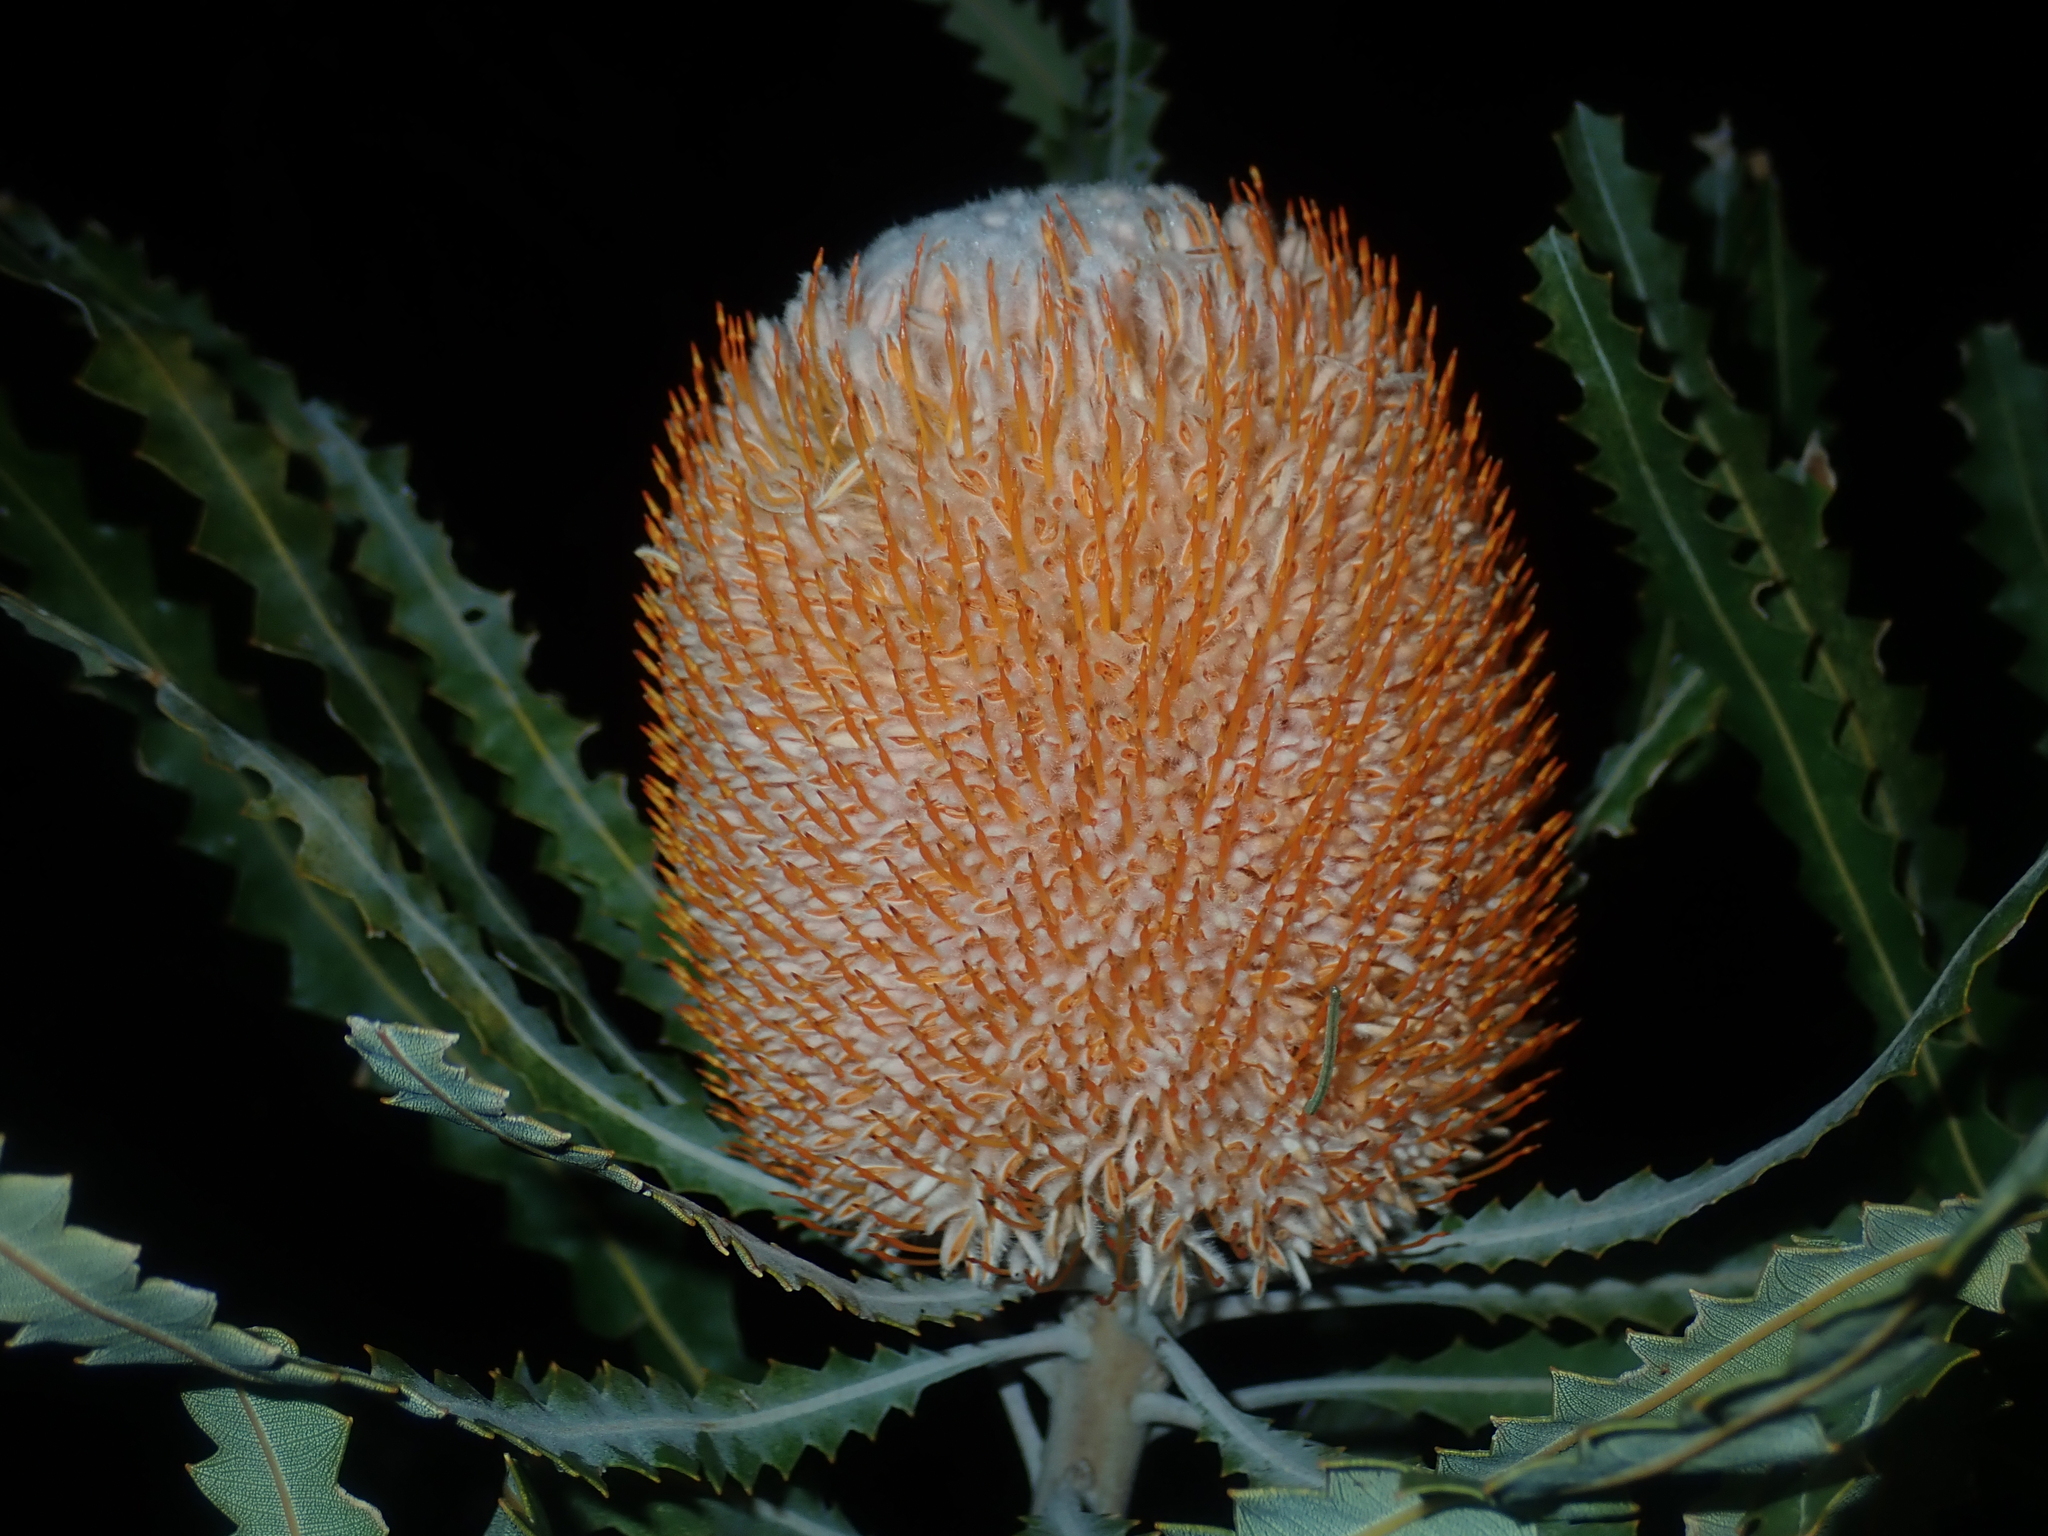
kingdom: Plantae
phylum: Tracheophyta
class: Magnoliopsida
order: Proteales
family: Proteaceae
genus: Banksia
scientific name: Banksia prionotes
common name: Acorn banksia
